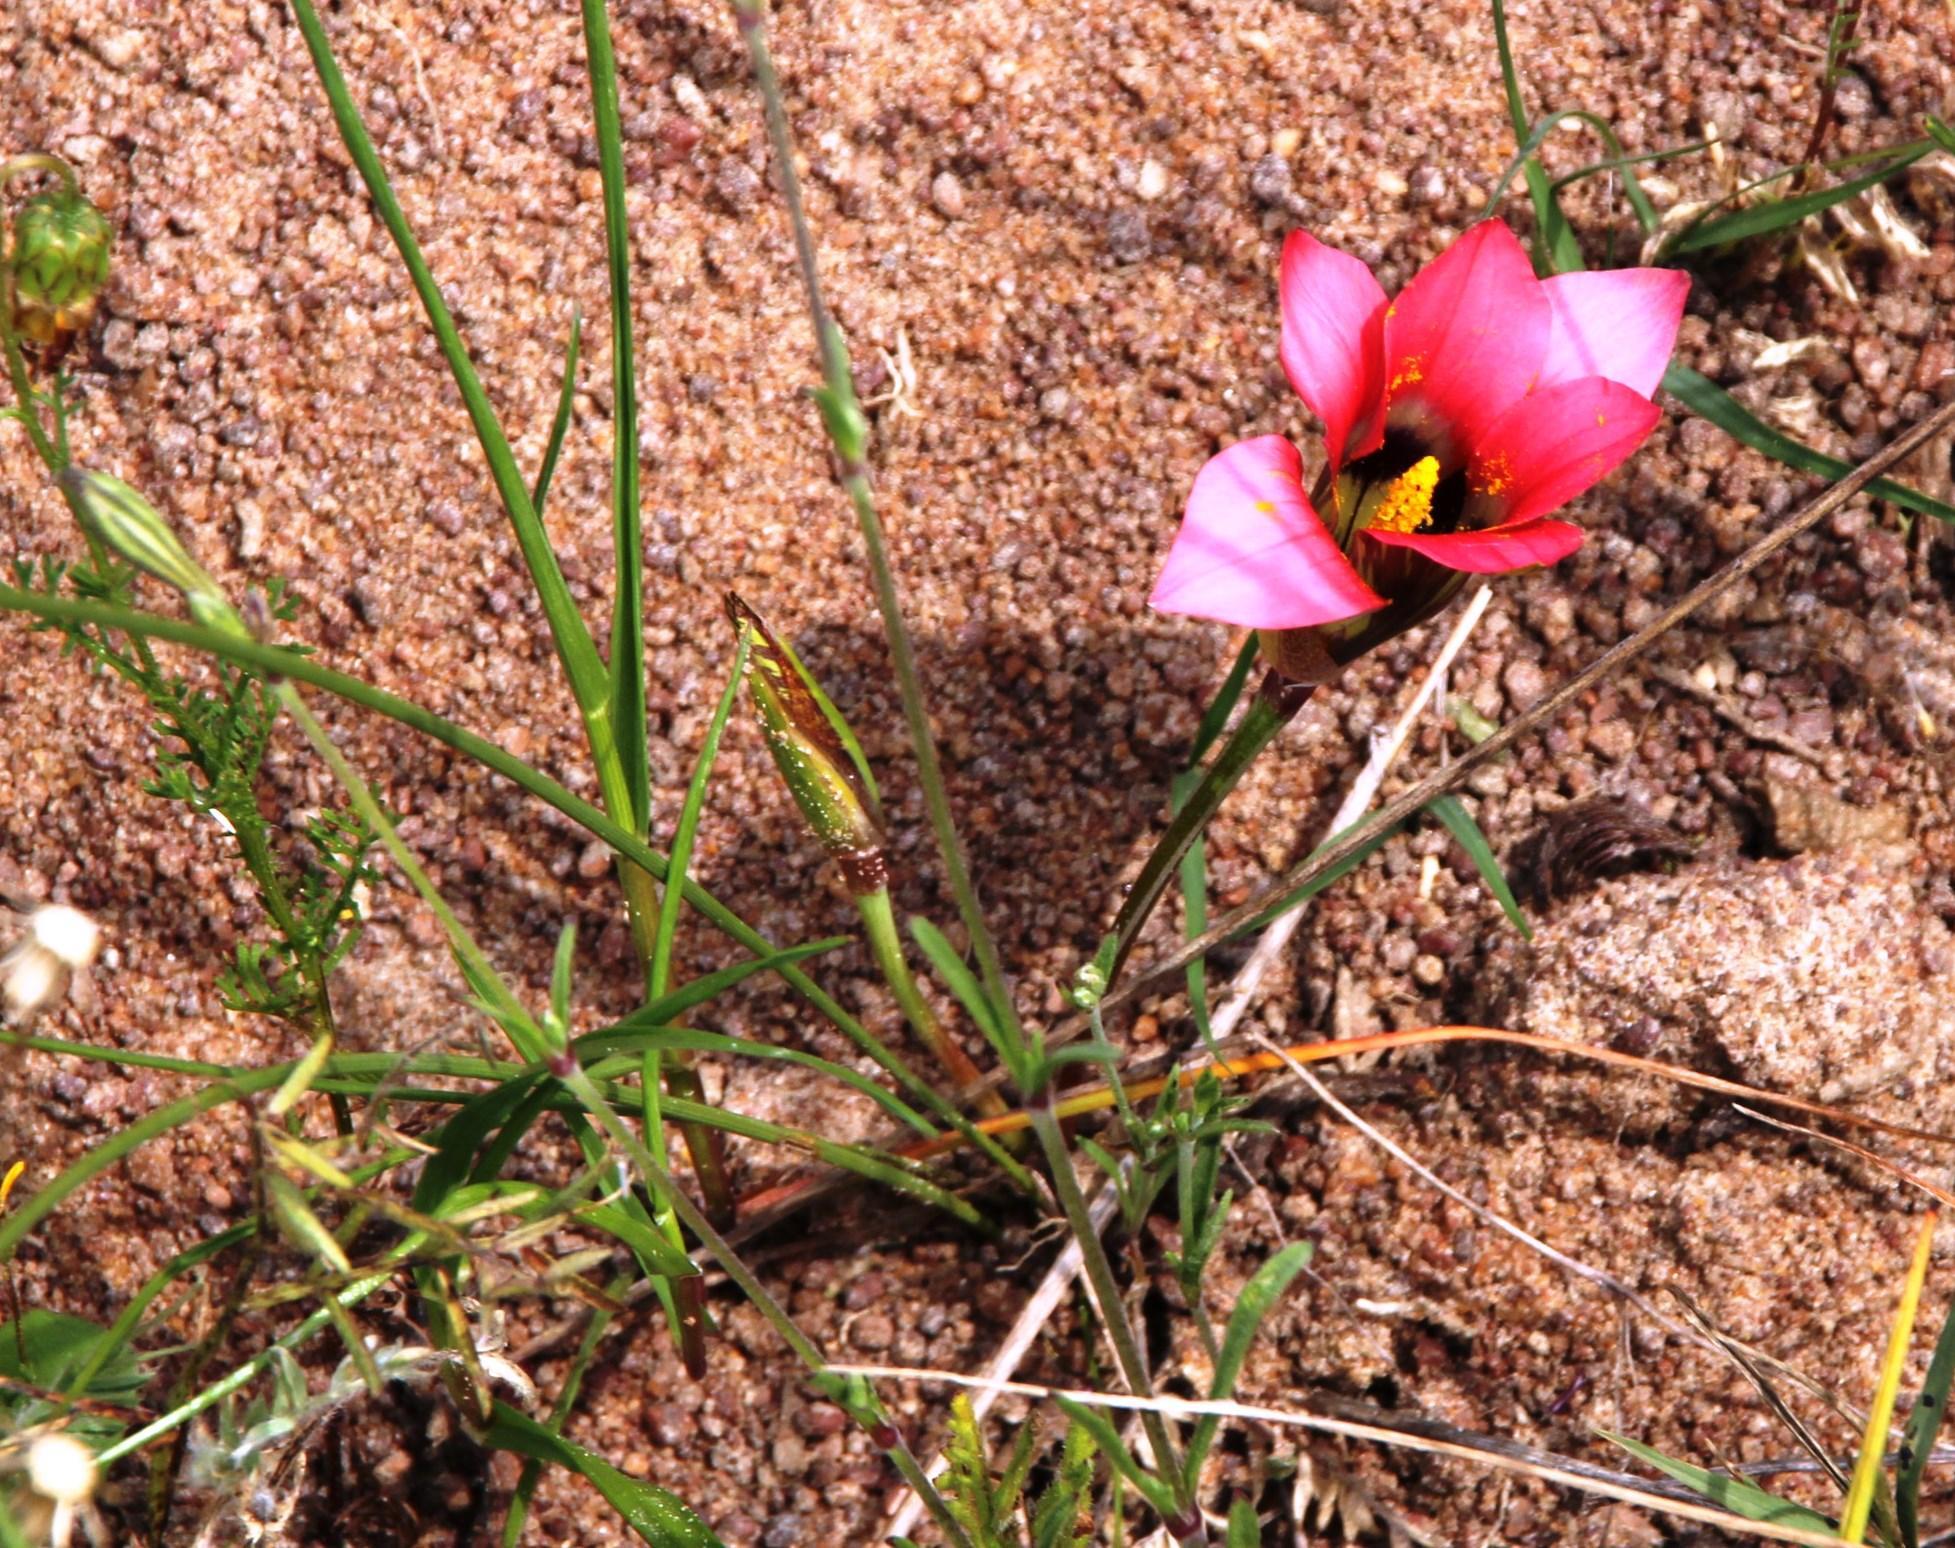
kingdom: Plantae
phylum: Tracheophyta
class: Liliopsida
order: Asparagales
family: Iridaceae
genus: Romulea
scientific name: Romulea hirsuta
